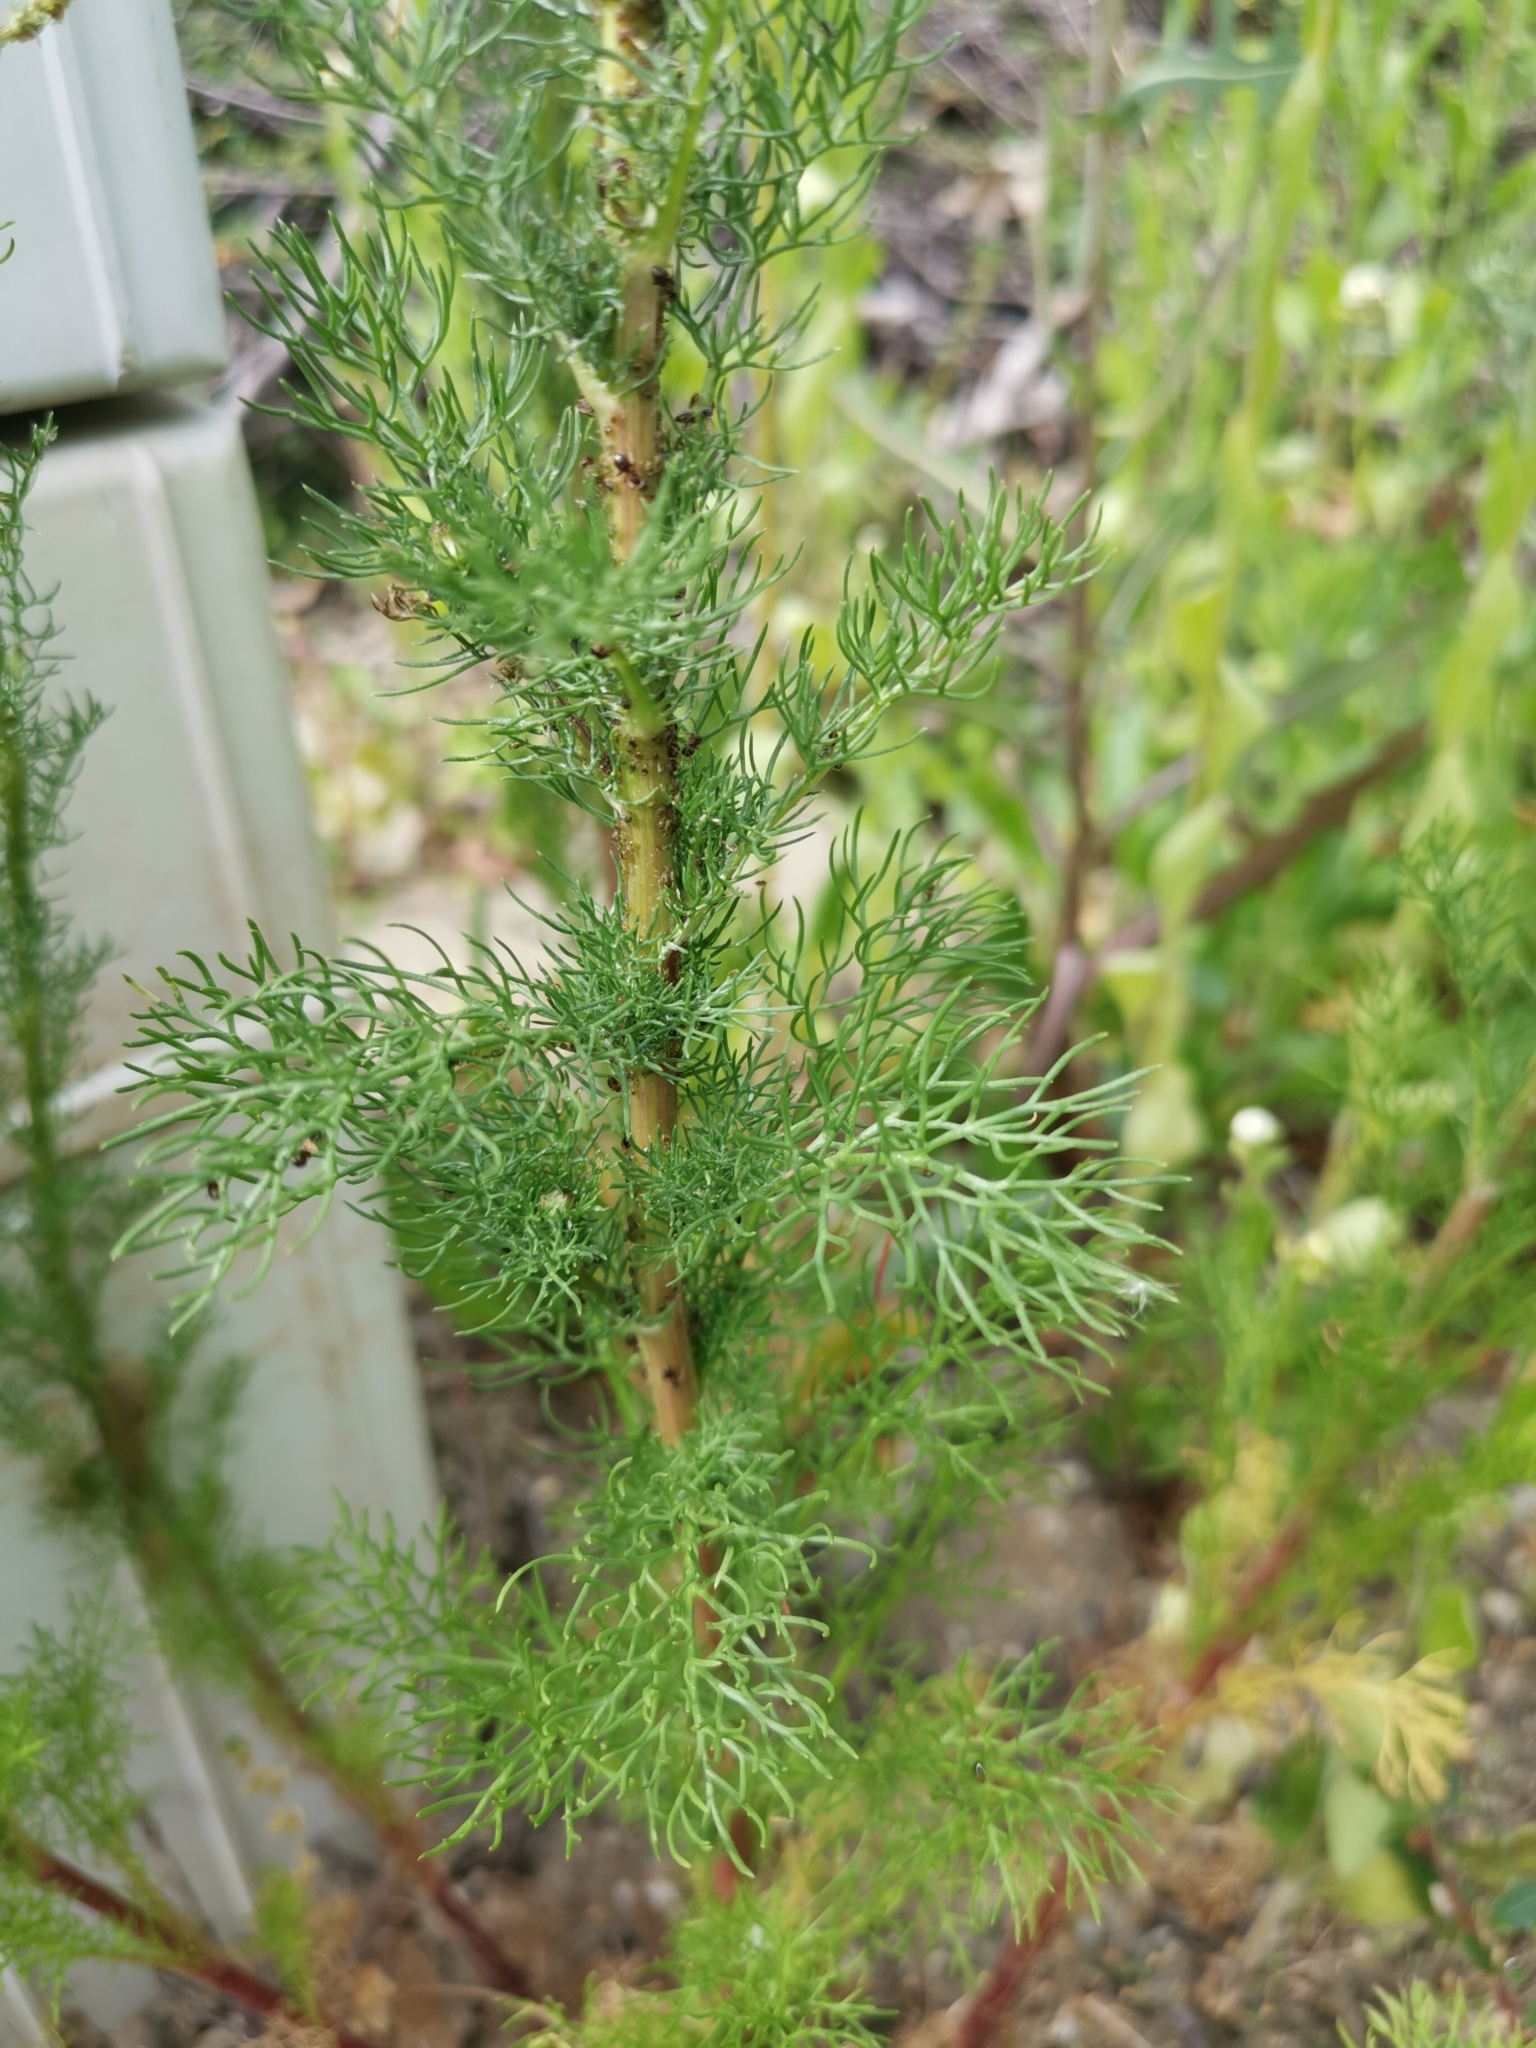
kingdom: Plantae
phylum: Tracheophyta
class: Magnoliopsida
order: Asterales
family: Asteraceae
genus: Tripleurospermum
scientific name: Tripleurospermum inodorum
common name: Scentless mayweed
